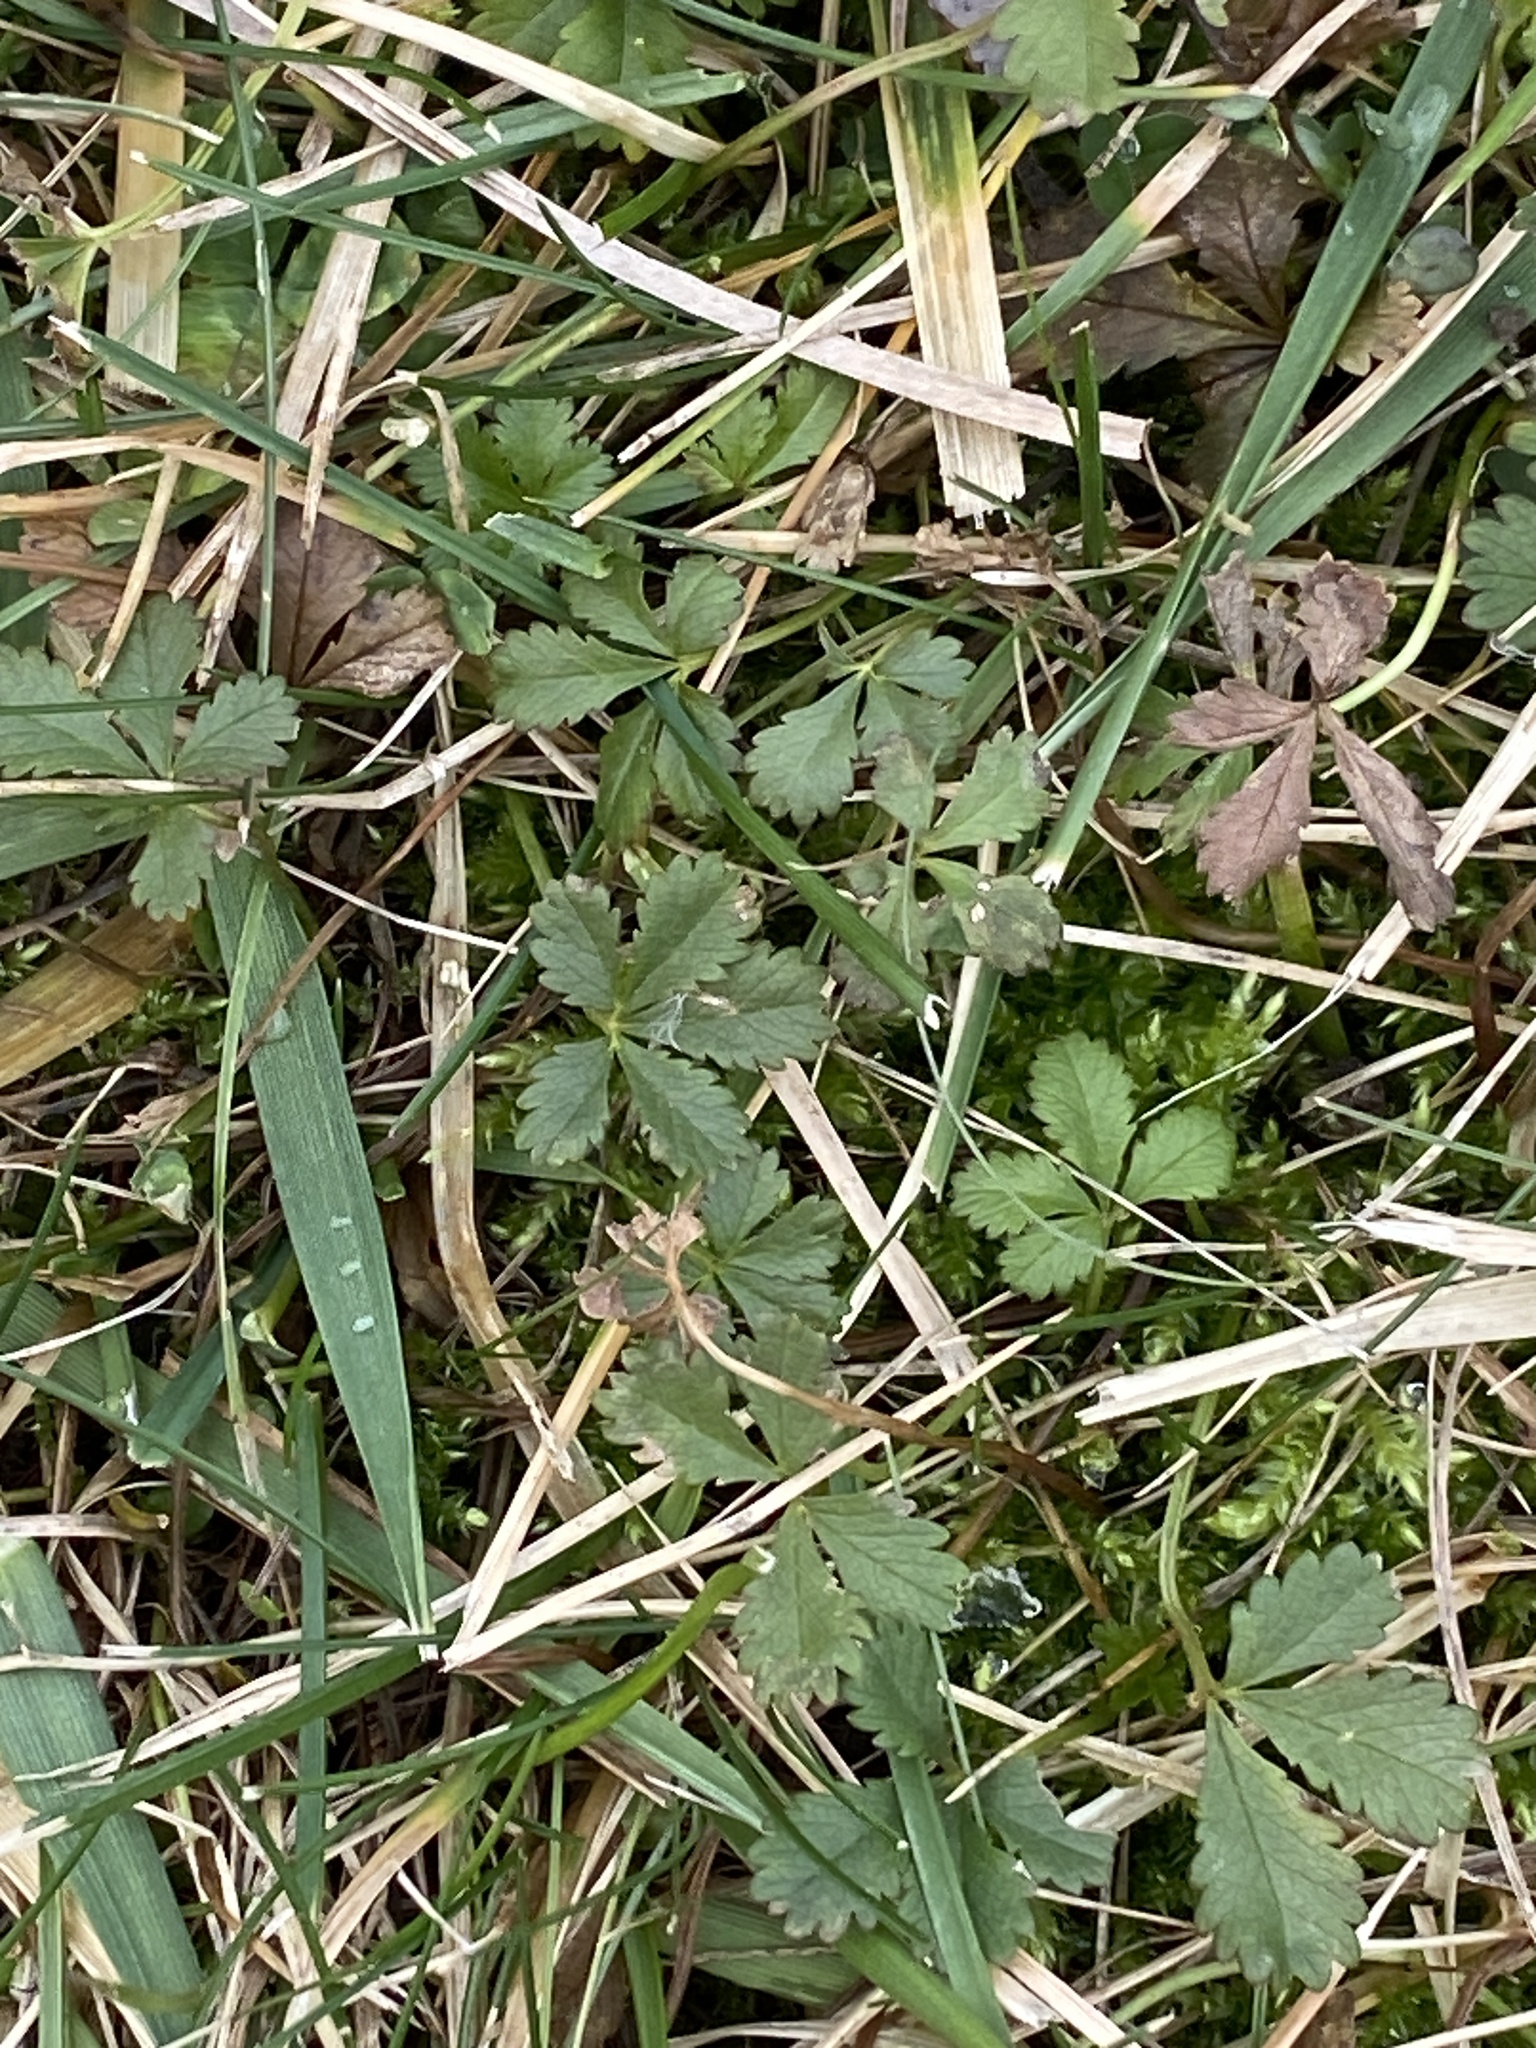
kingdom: Plantae
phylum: Tracheophyta
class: Magnoliopsida
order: Rosales
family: Rosaceae
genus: Potentilla
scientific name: Potentilla reptans
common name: Creeping cinquefoil
